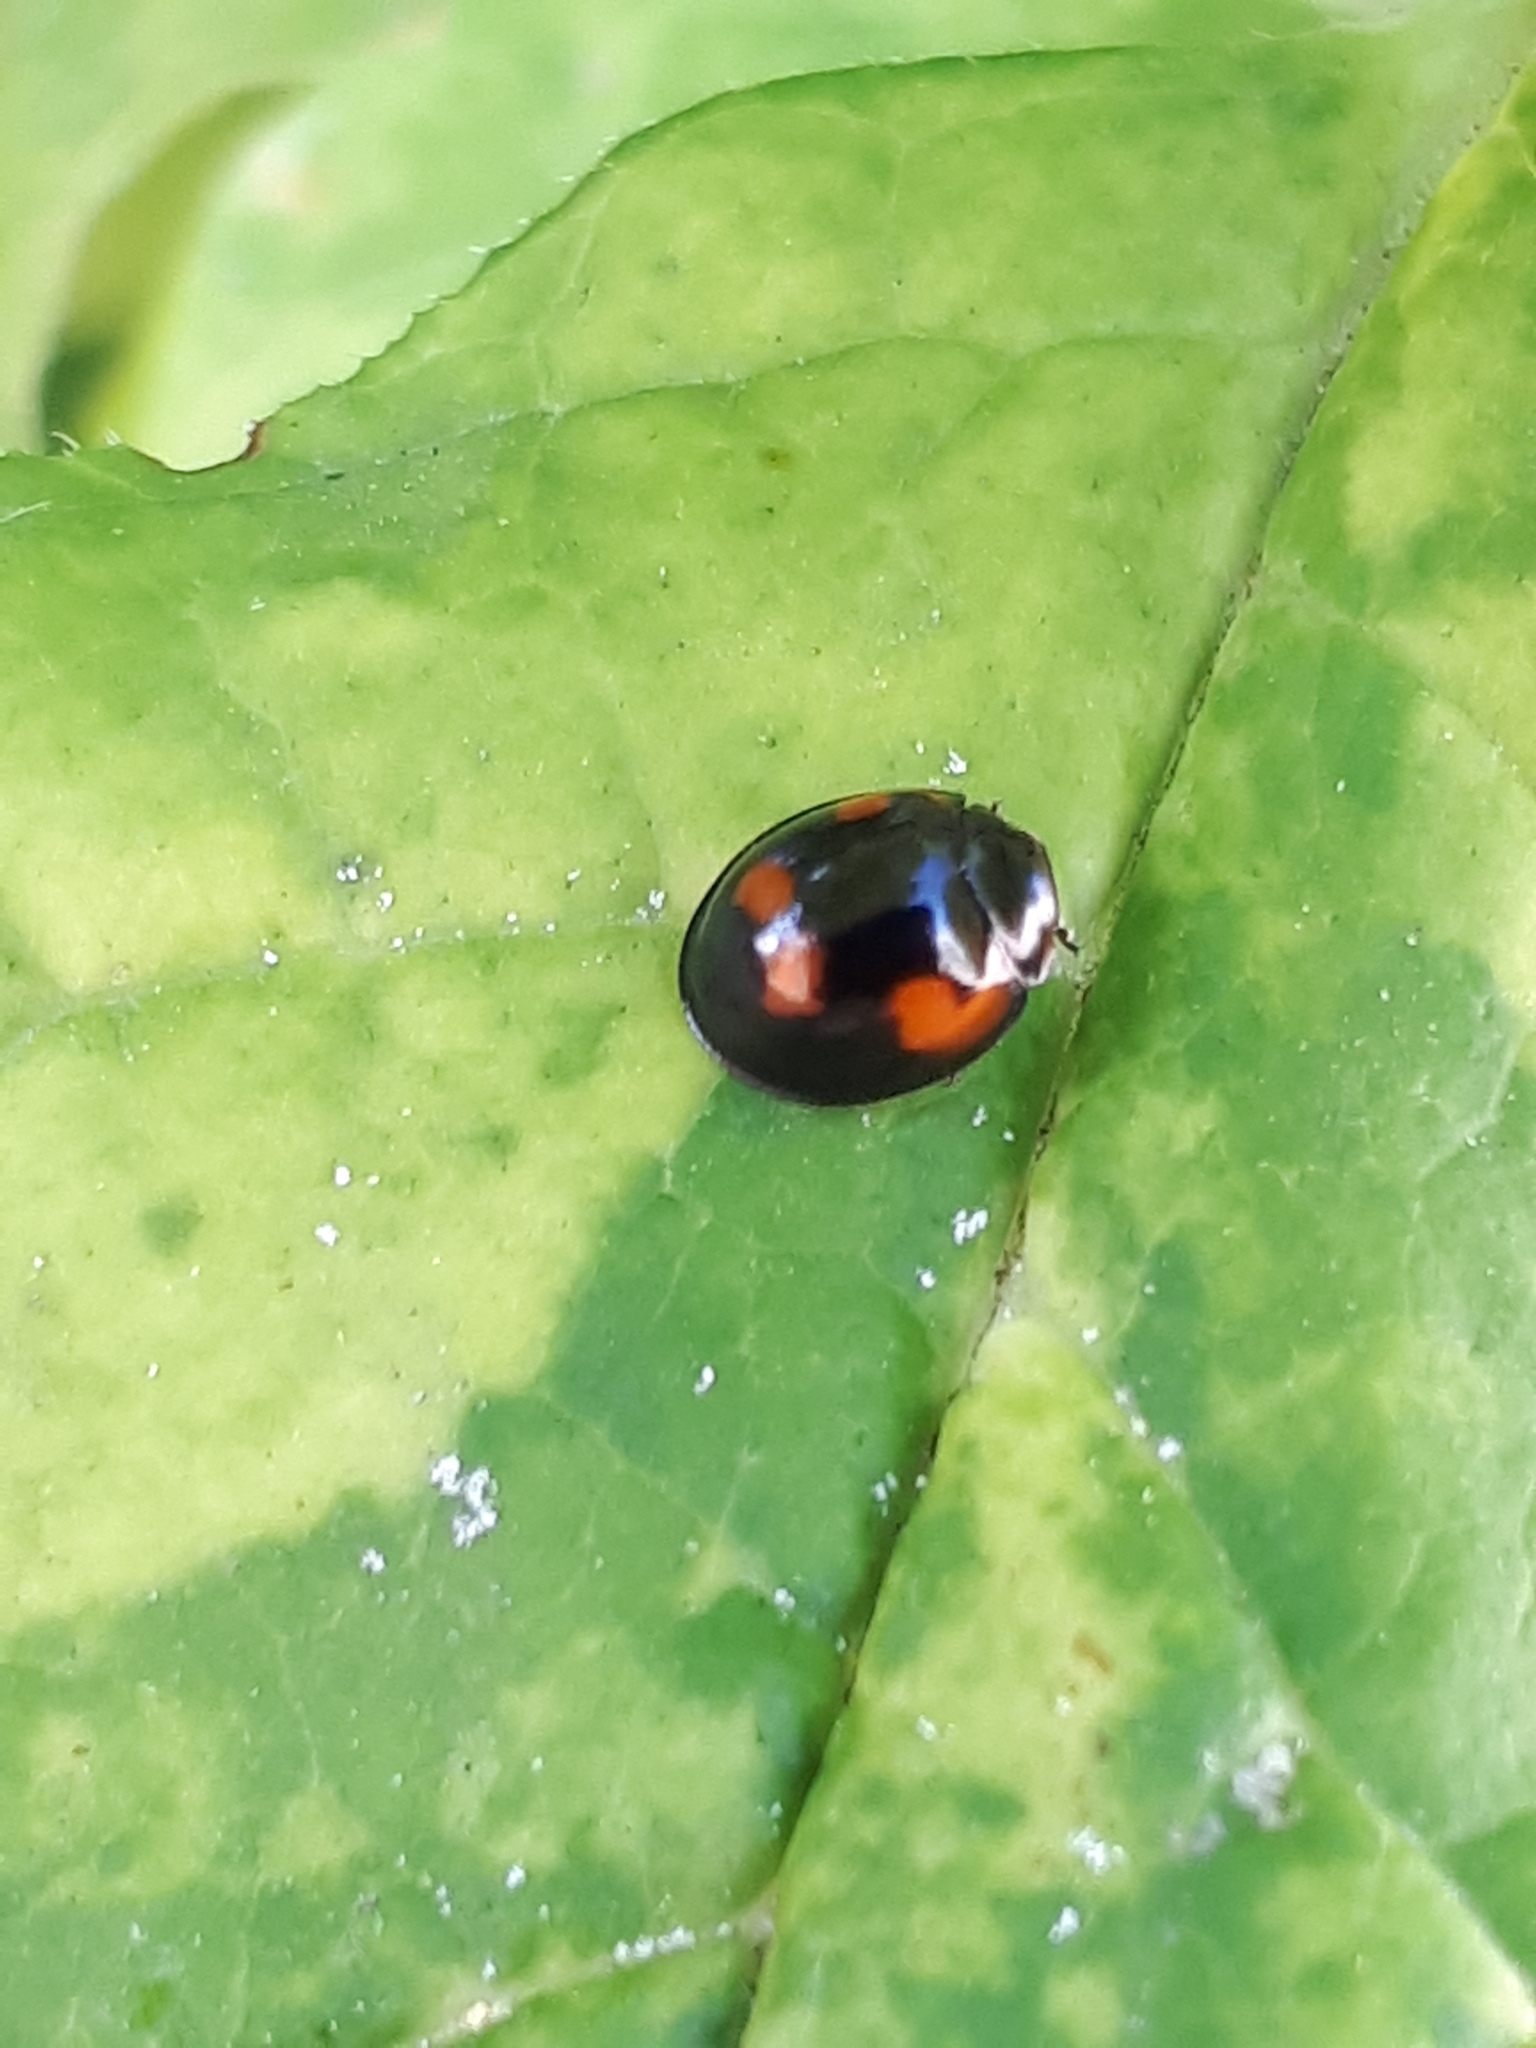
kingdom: Animalia
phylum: Arthropoda
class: Insecta
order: Coleoptera
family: Coccinellidae
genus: Brumus
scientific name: Brumus quadripustulatus
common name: Ladybird beetle
